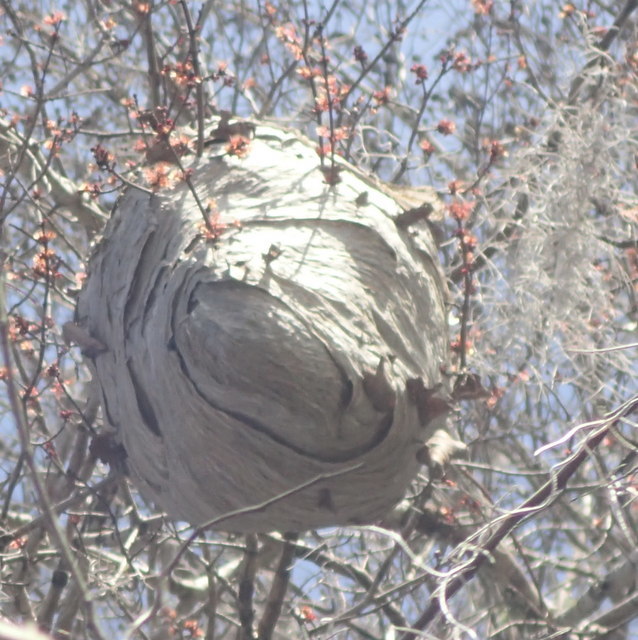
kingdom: Animalia
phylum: Arthropoda
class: Insecta
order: Hymenoptera
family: Vespidae
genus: Dolichovespula
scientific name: Dolichovespula
